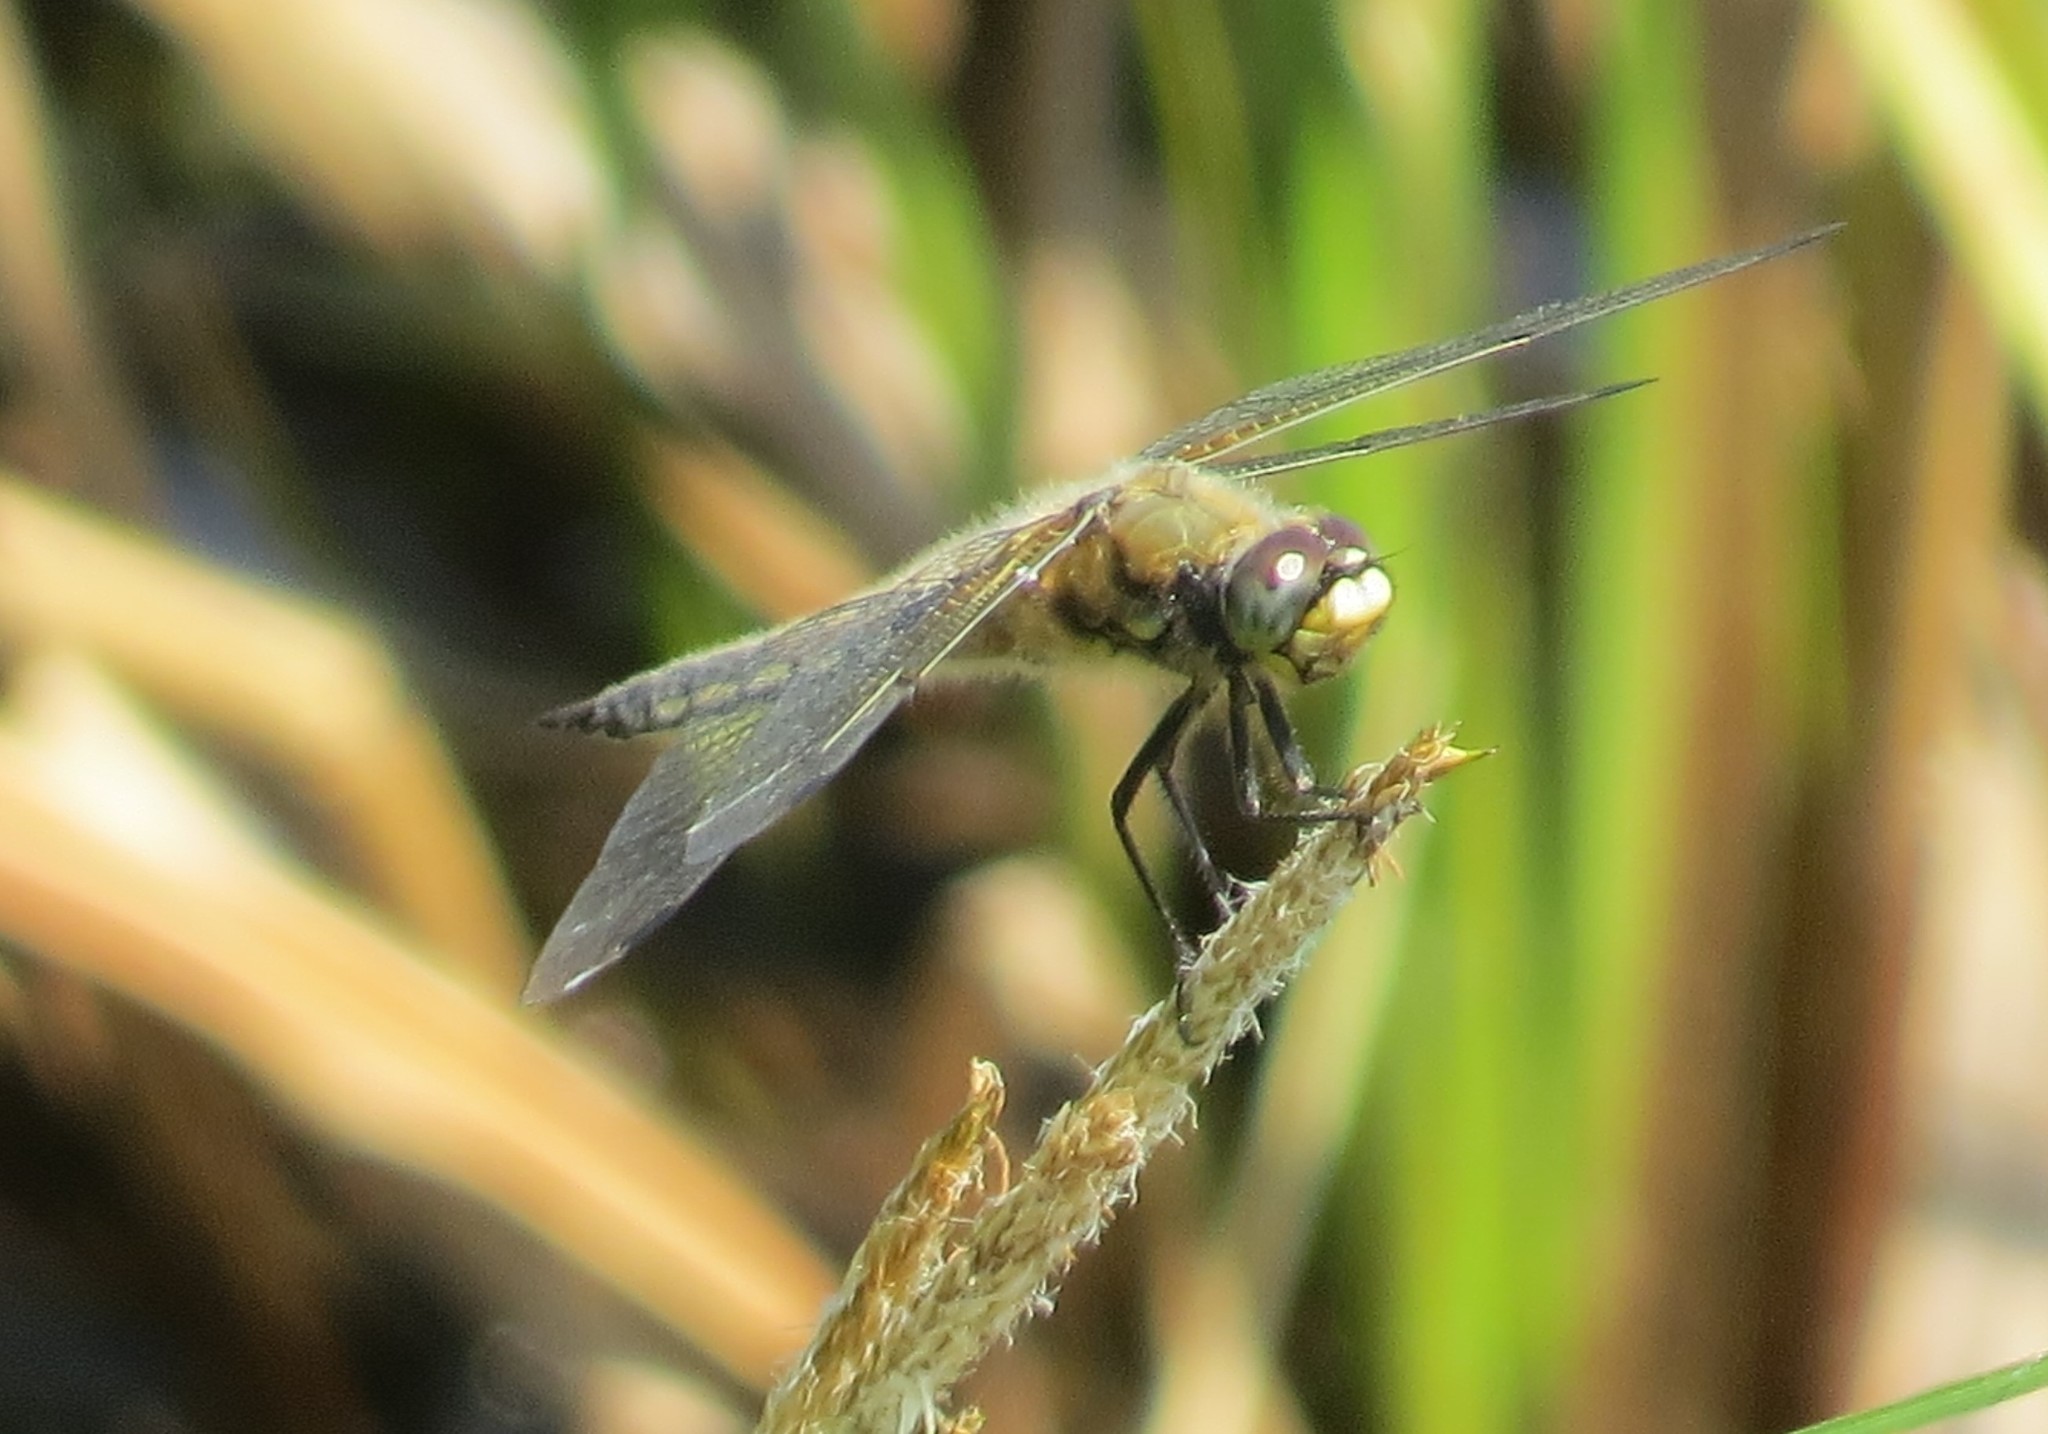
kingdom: Animalia
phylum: Arthropoda
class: Insecta
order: Odonata
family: Libellulidae
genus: Libellula
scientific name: Libellula quadrimaculata
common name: Four-spotted chaser
